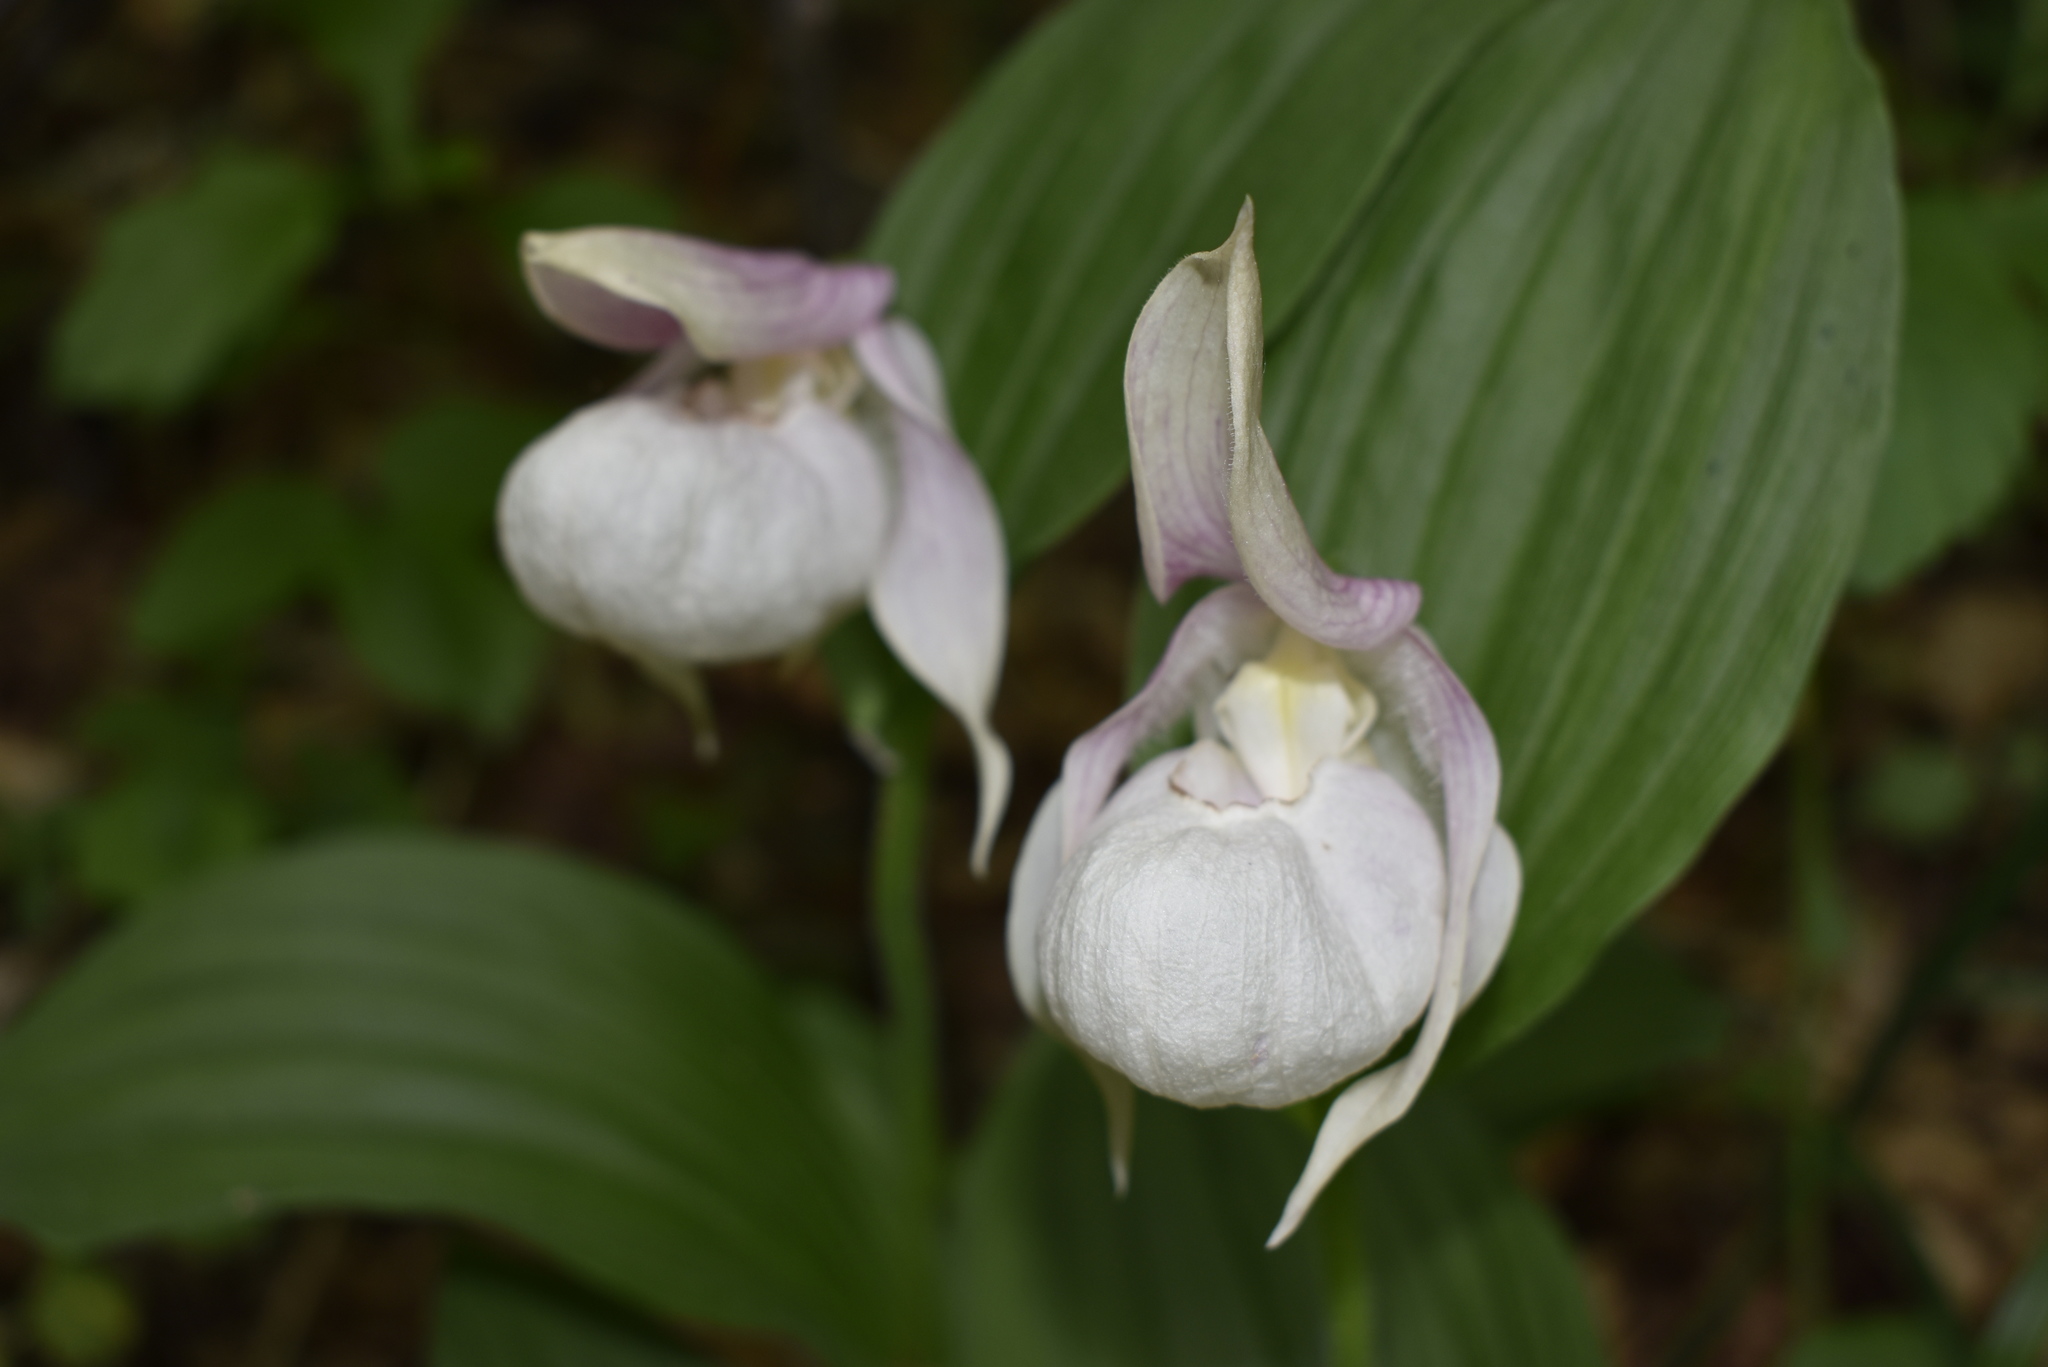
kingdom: Plantae
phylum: Tracheophyta
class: Liliopsida
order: Asparagales
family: Orchidaceae
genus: Cypripedium
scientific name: Cypripedium macranthos
